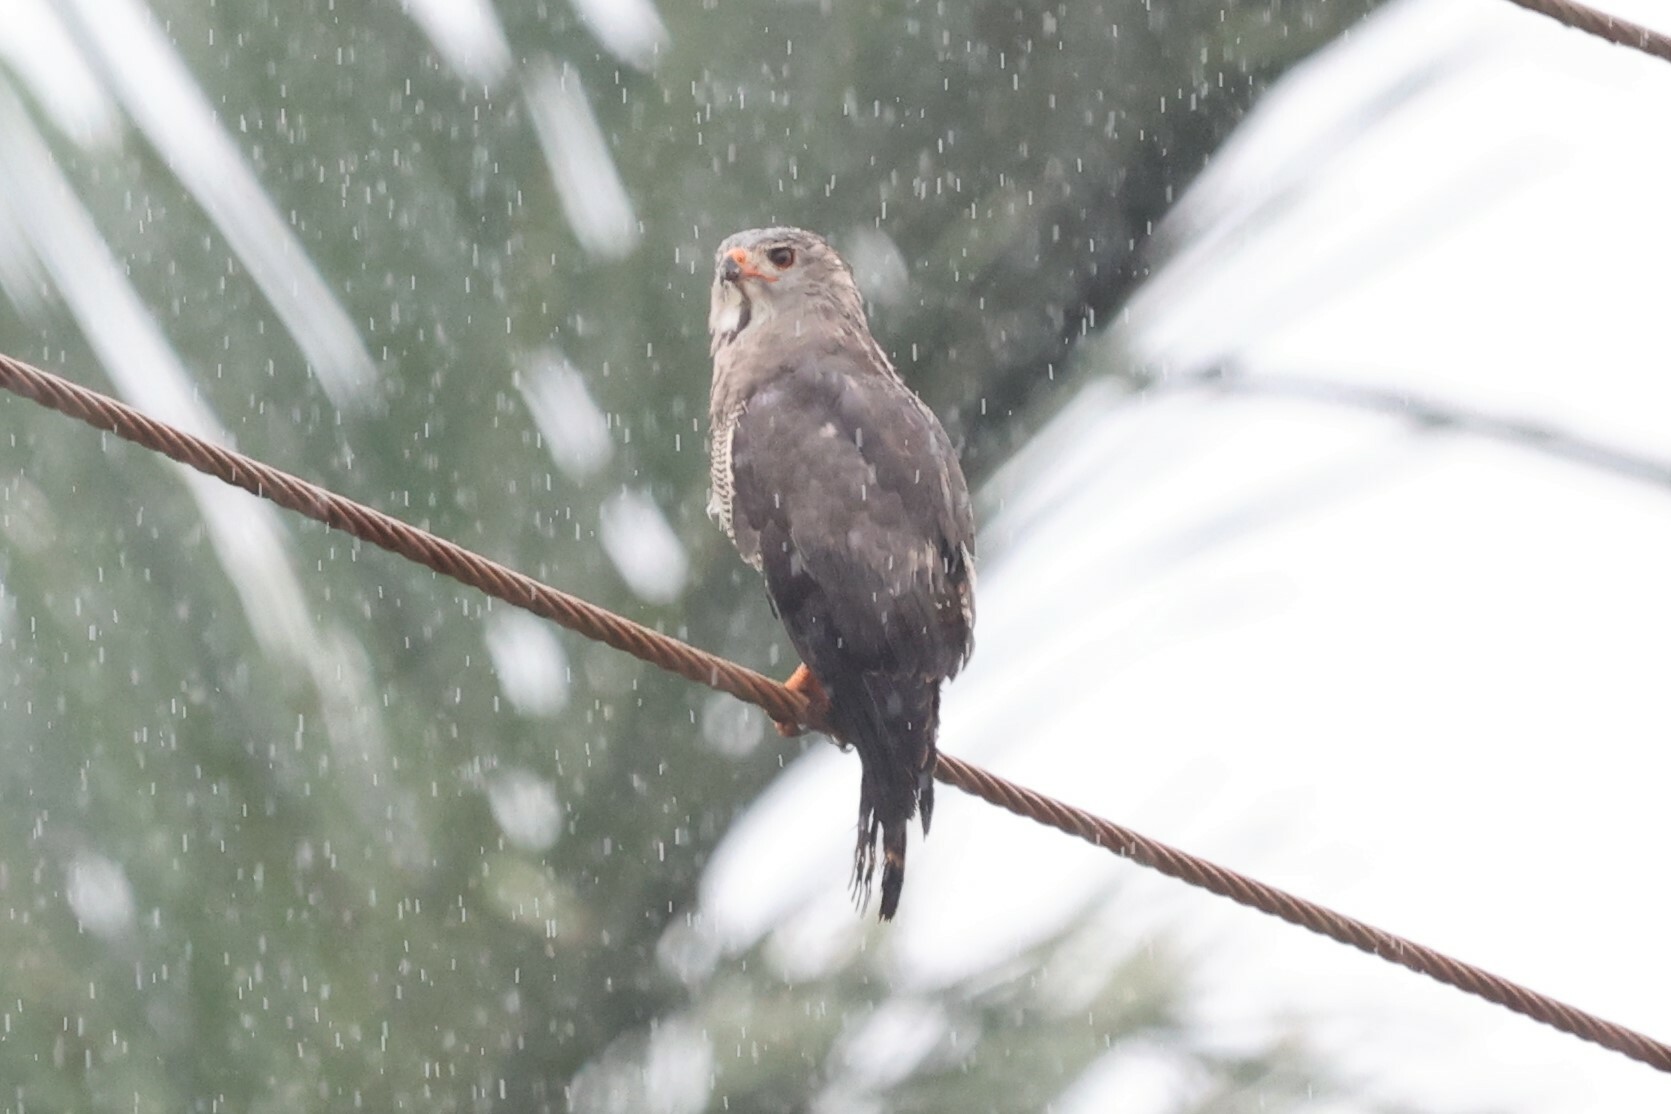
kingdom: Animalia
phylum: Chordata
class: Aves
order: Accipitriformes
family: Accipitridae
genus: Kaupifalco
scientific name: Kaupifalco monogrammicus
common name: Lizard buzzard
